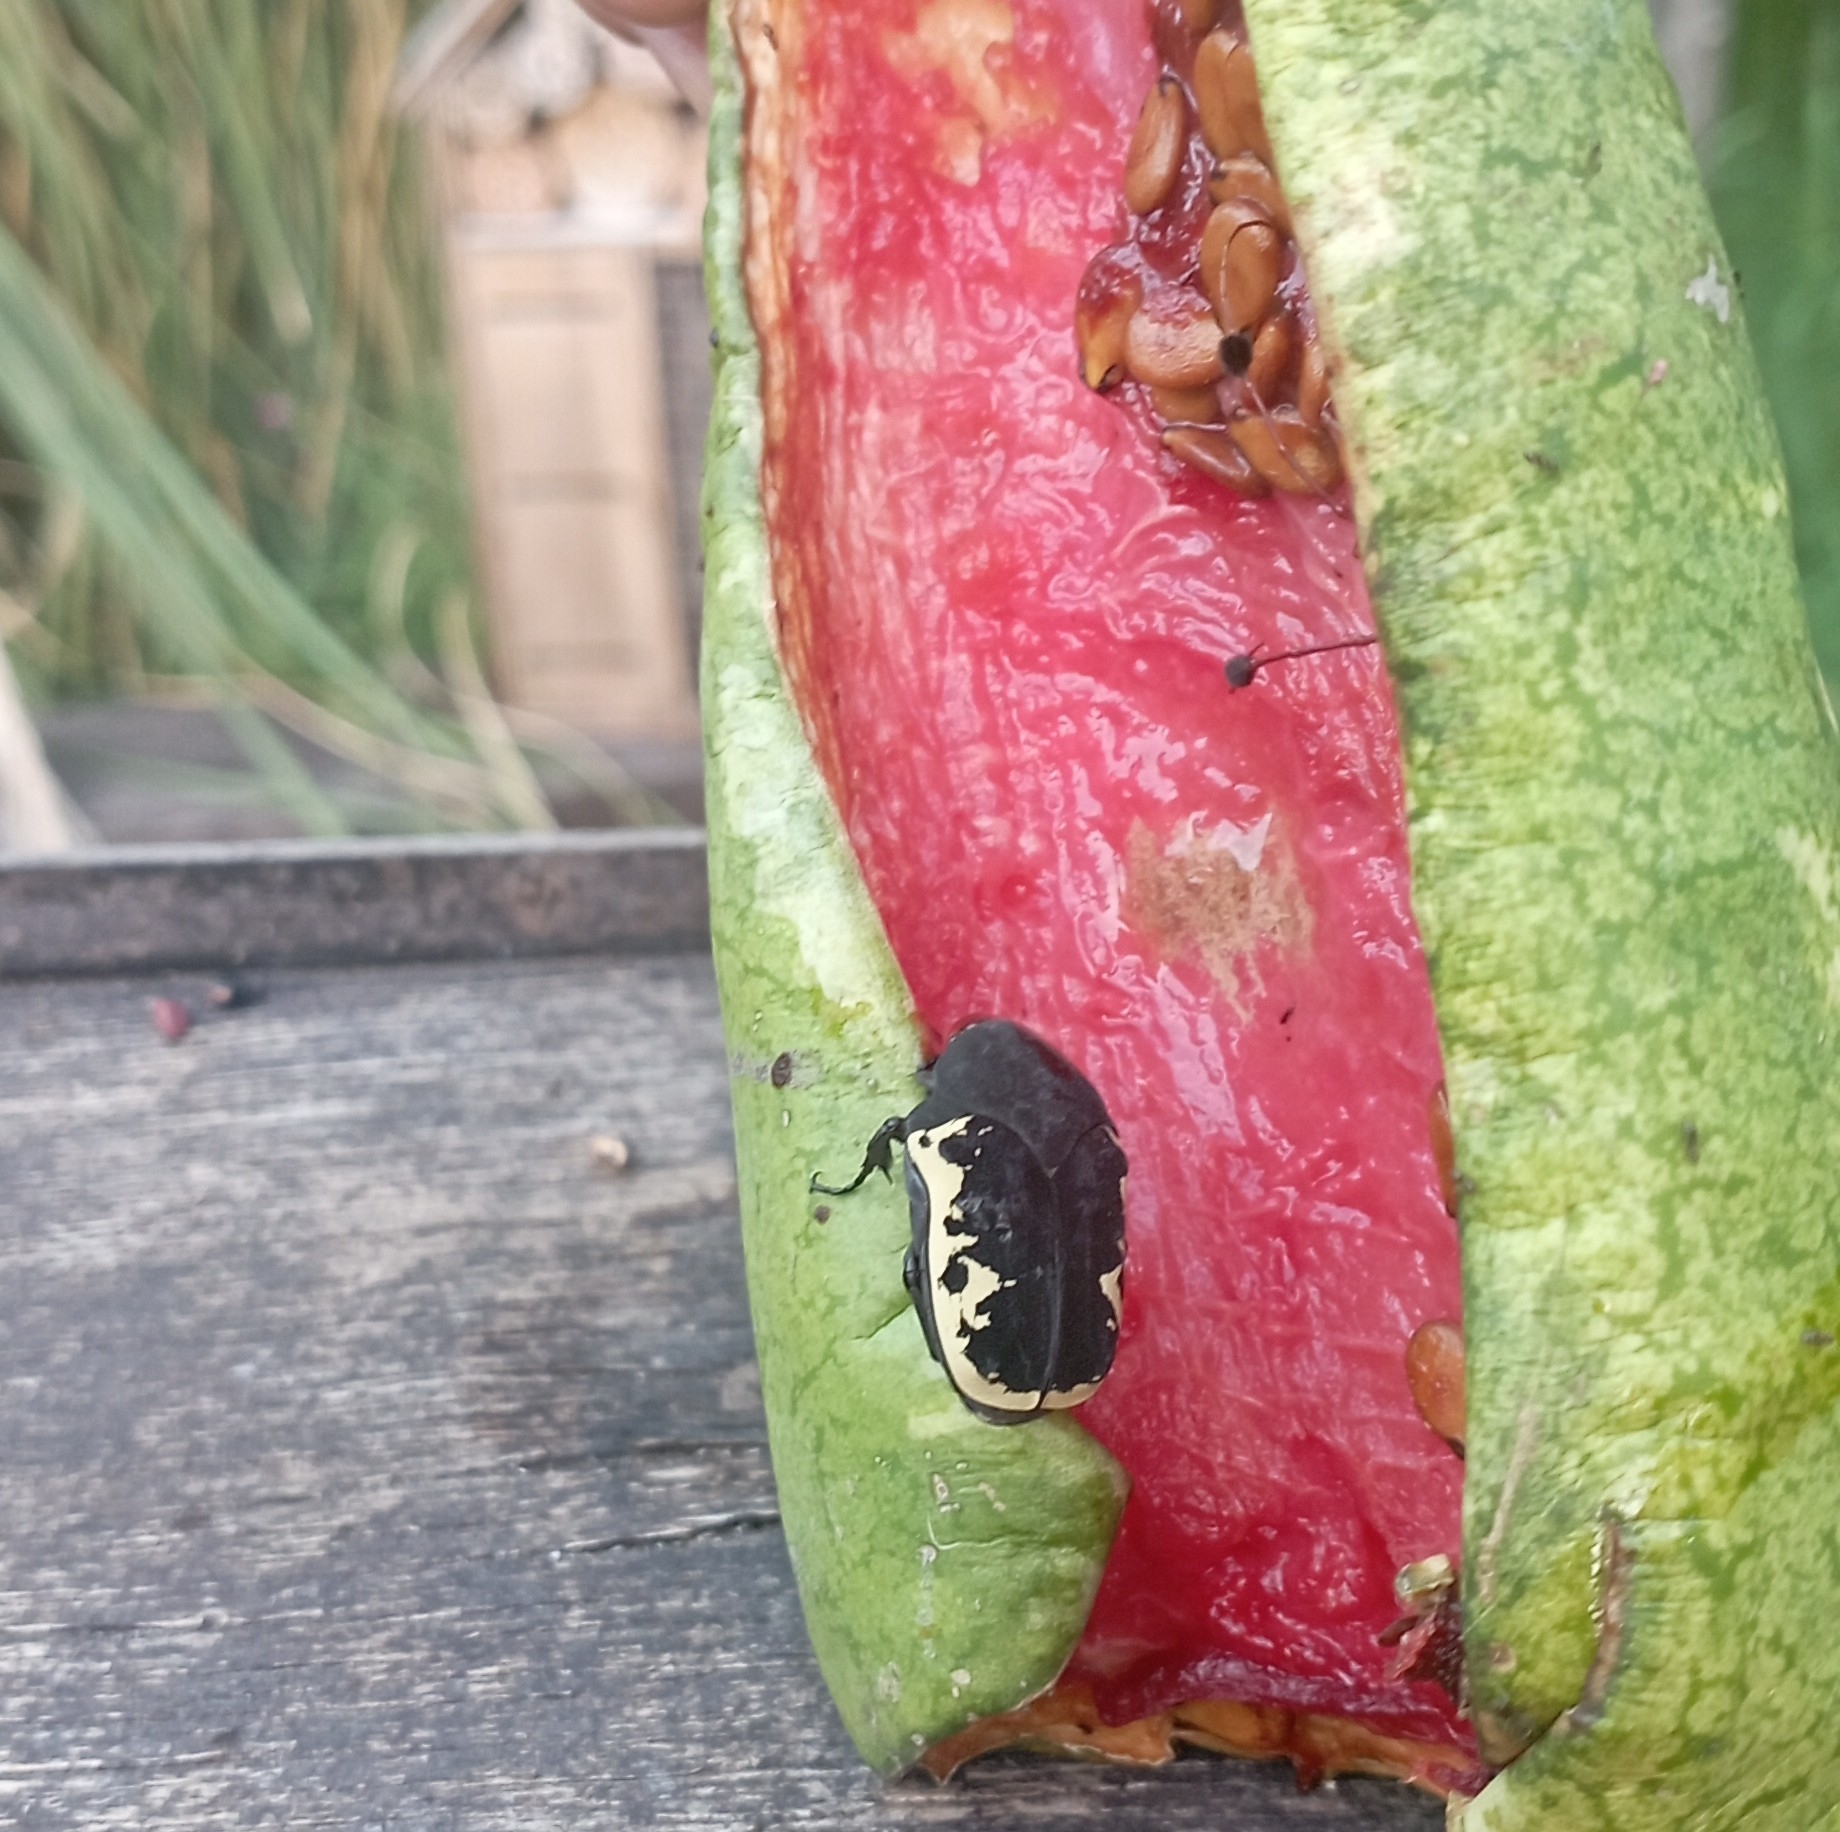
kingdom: Animalia
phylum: Arthropoda
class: Insecta
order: Coleoptera
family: Scarabaeidae
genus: Gymnetis
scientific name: Gymnetis pudibunda
